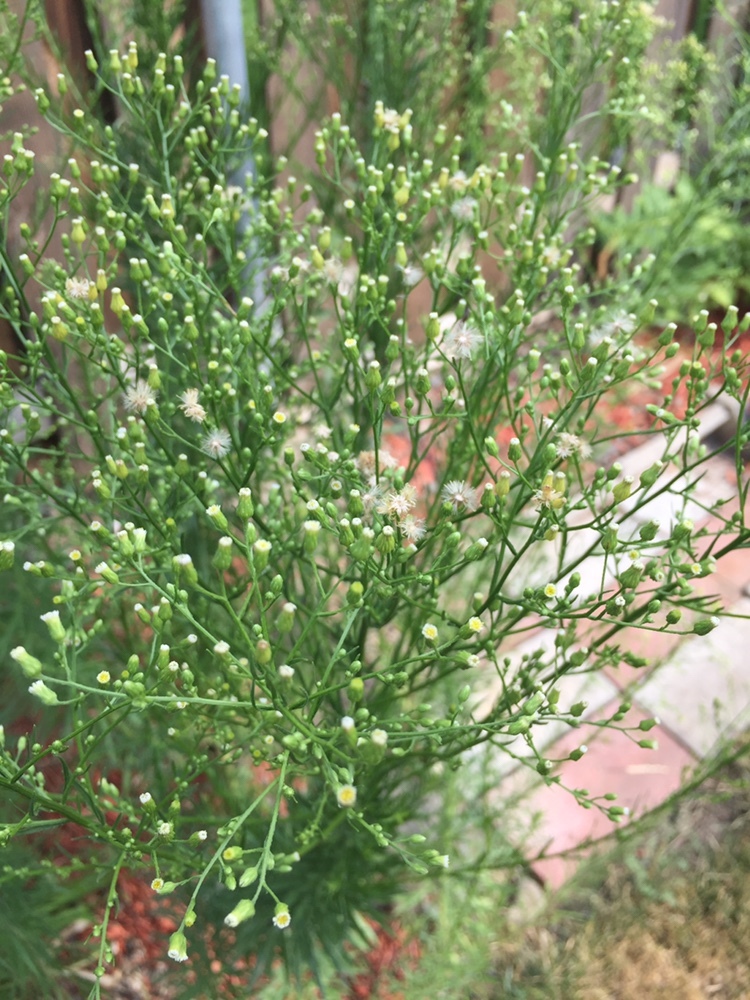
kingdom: Plantae
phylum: Tracheophyta
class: Magnoliopsida
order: Asterales
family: Asteraceae
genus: Erigeron
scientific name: Erigeron canadensis
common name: Canadian fleabane
